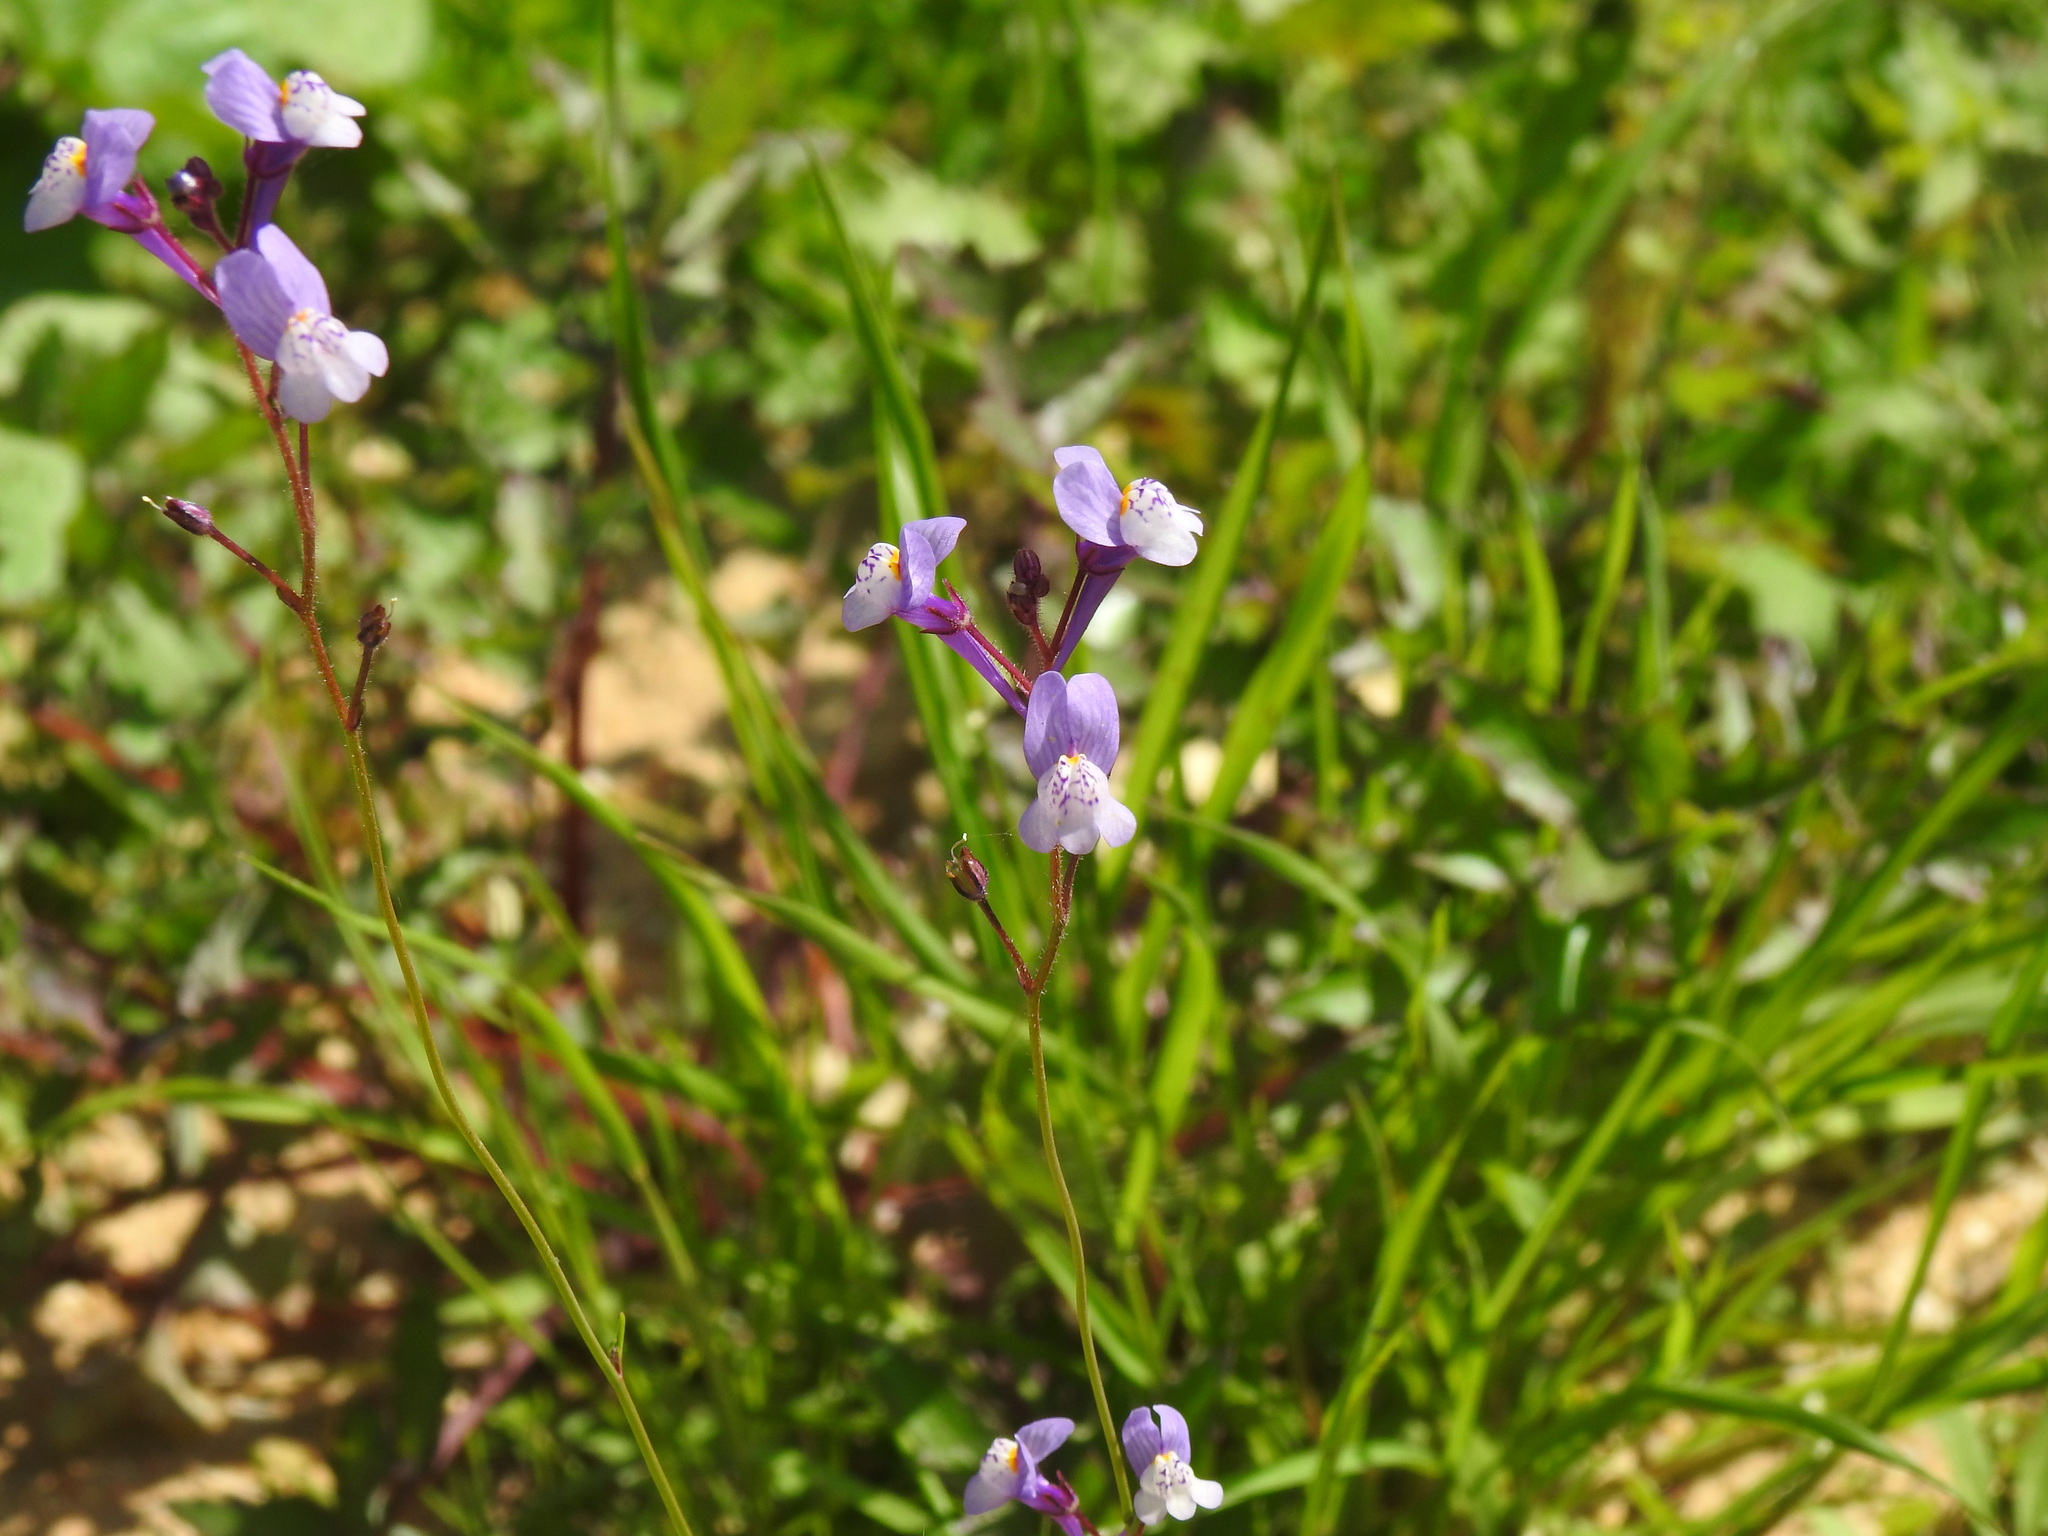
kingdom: Plantae
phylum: Tracheophyta
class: Magnoliopsida
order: Lamiales
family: Plantaginaceae
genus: Linaria
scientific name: Linaria algarviana
